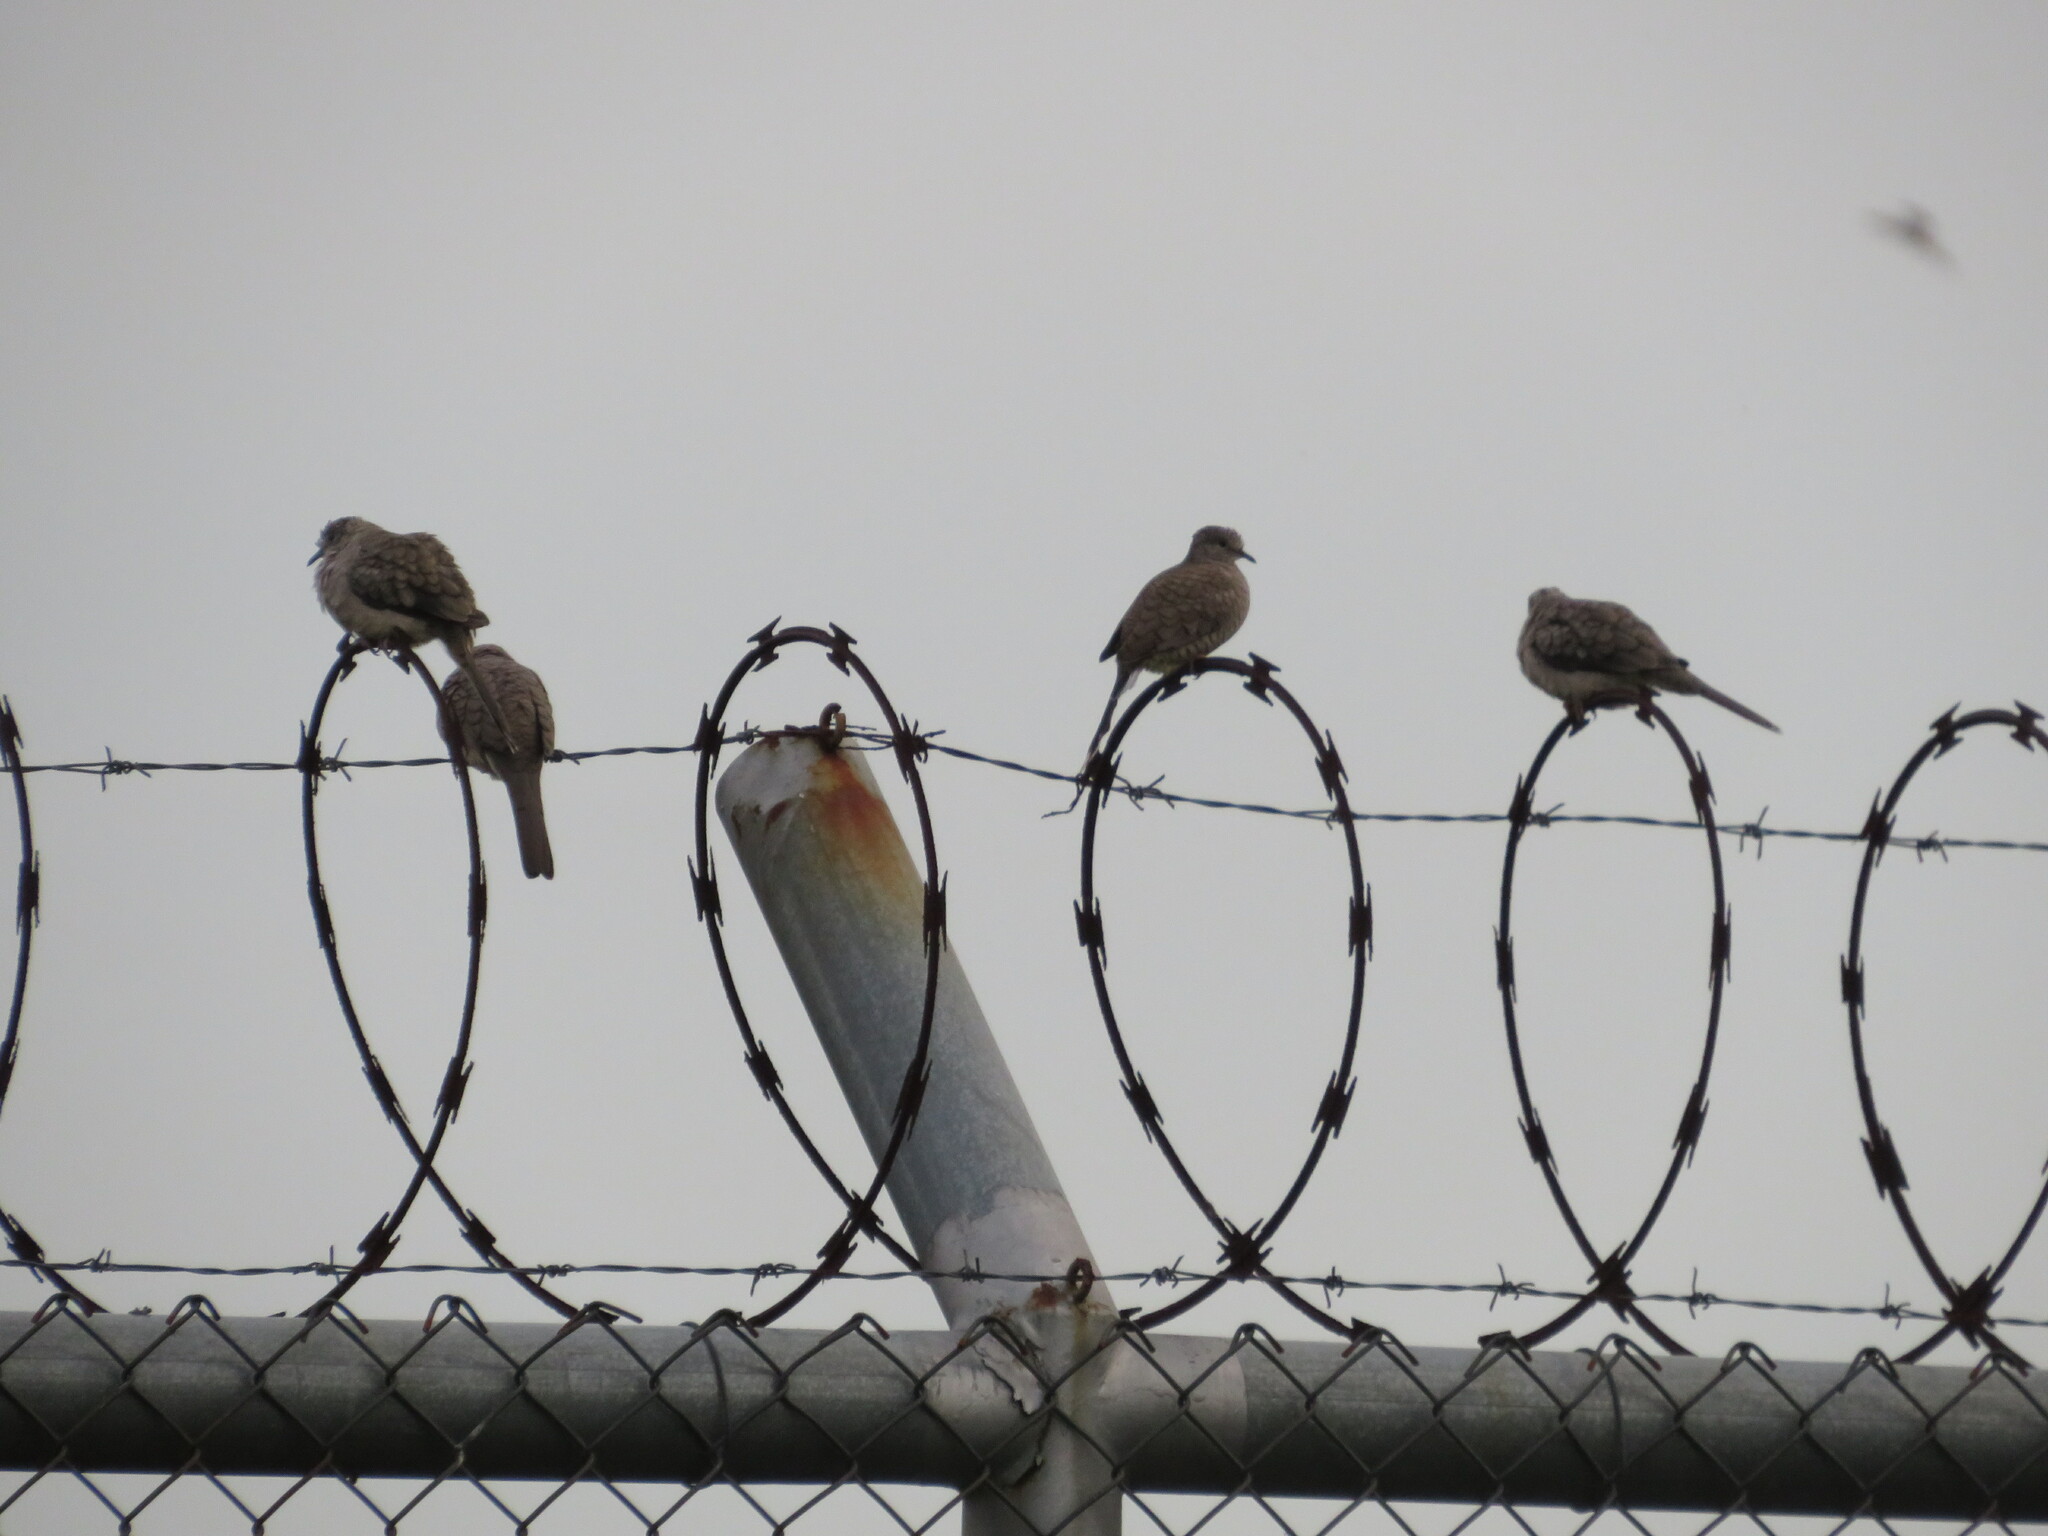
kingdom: Animalia
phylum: Chordata
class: Aves
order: Columbiformes
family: Columbidae
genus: Columbina
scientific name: Columbina inca
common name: Inca dove
